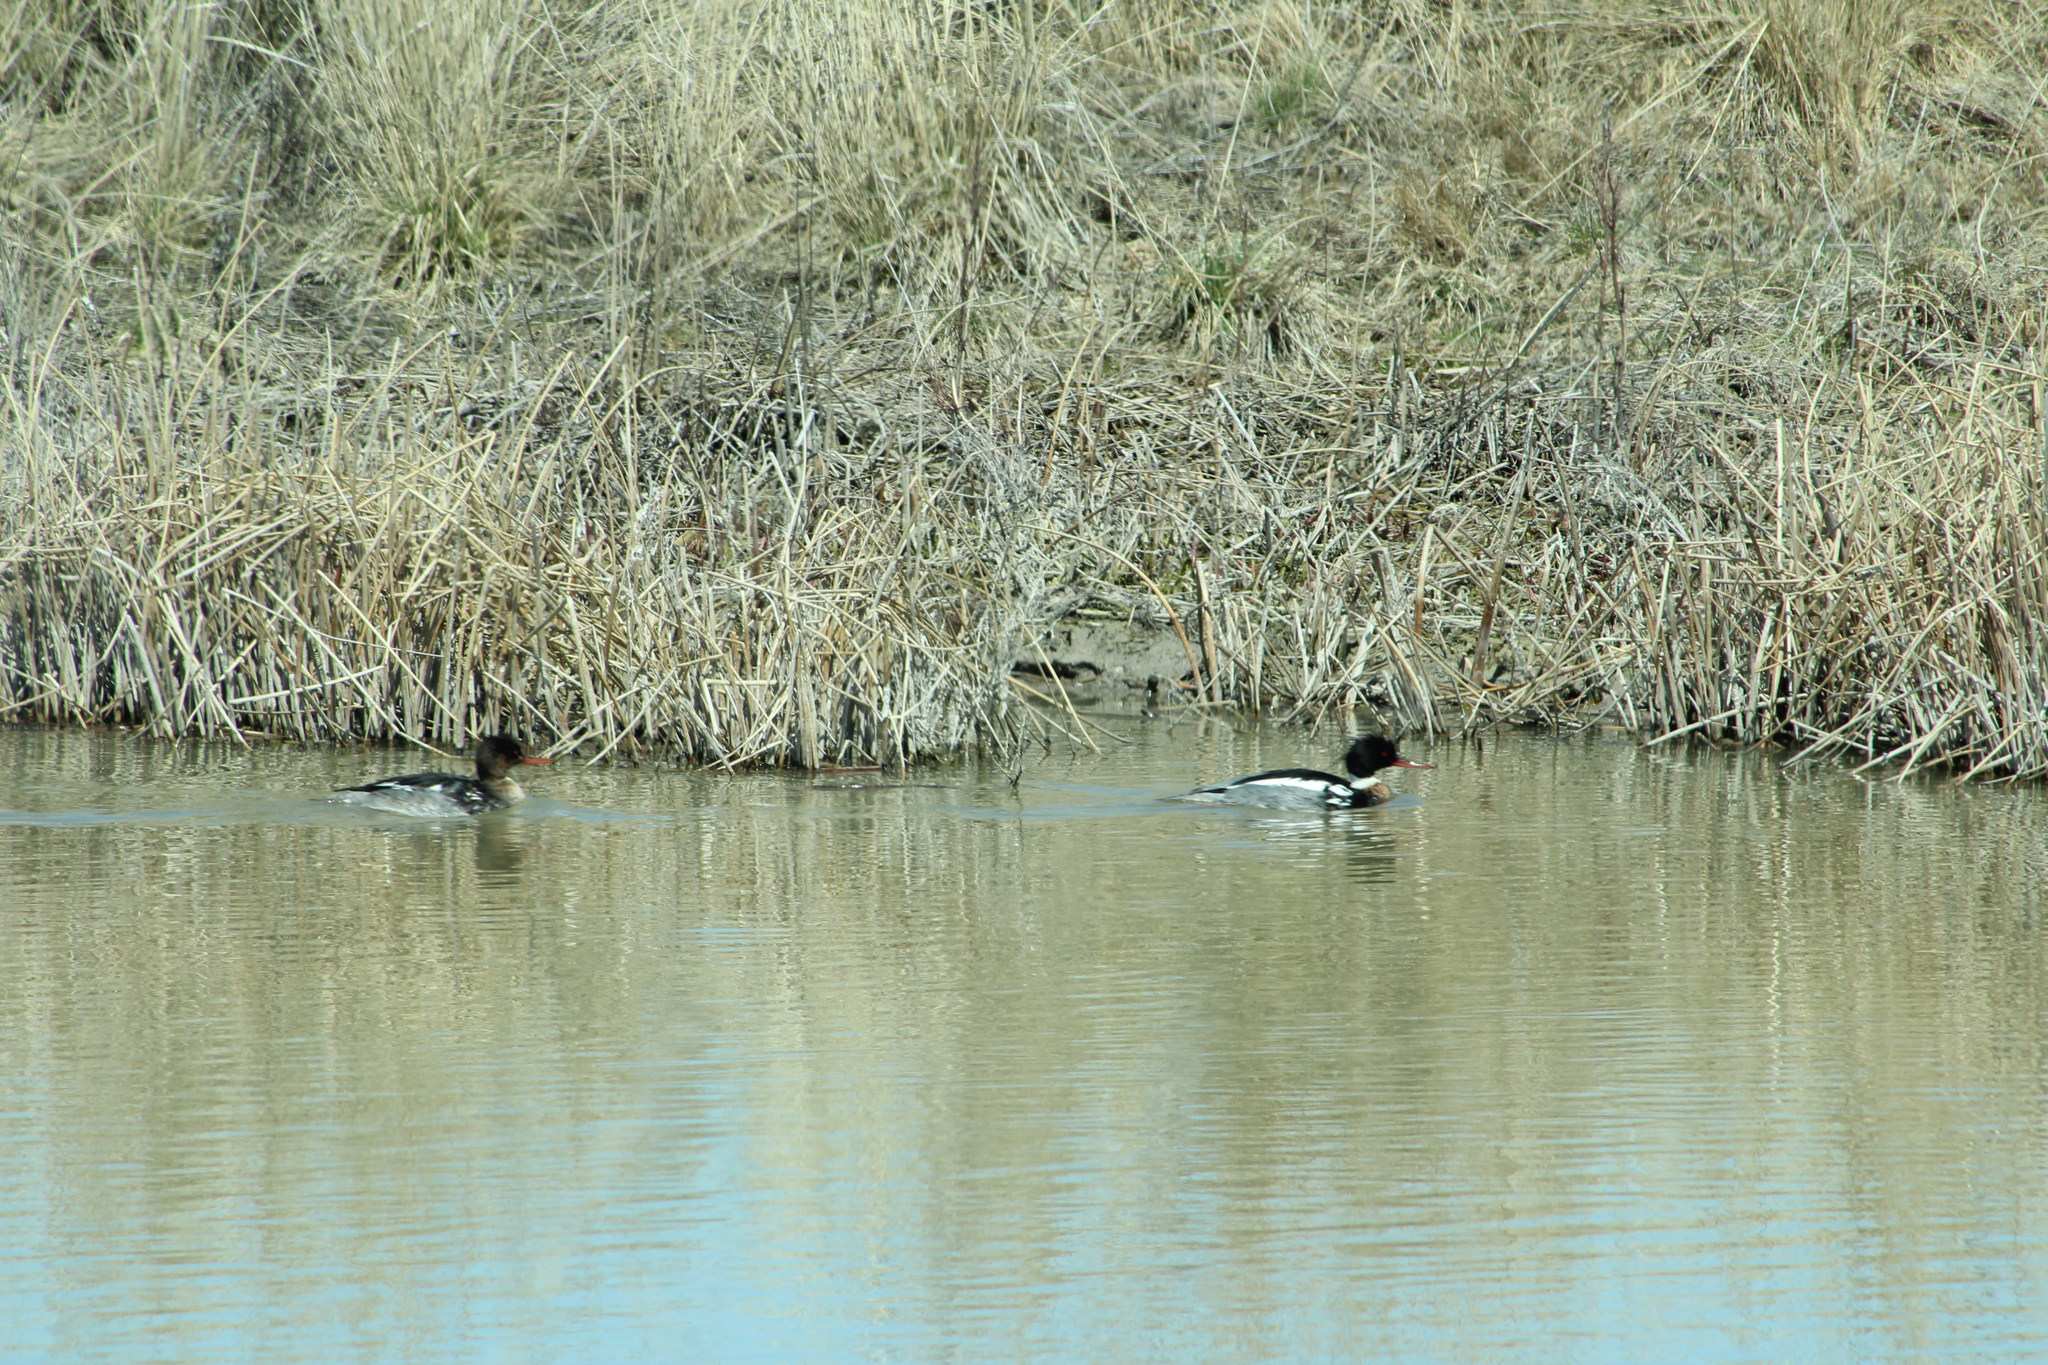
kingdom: Animalia
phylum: Chordata
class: Aves
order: Anseriformes
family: Anatidae
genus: Mergus
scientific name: Mergus serrator
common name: Red-breasted merganser
